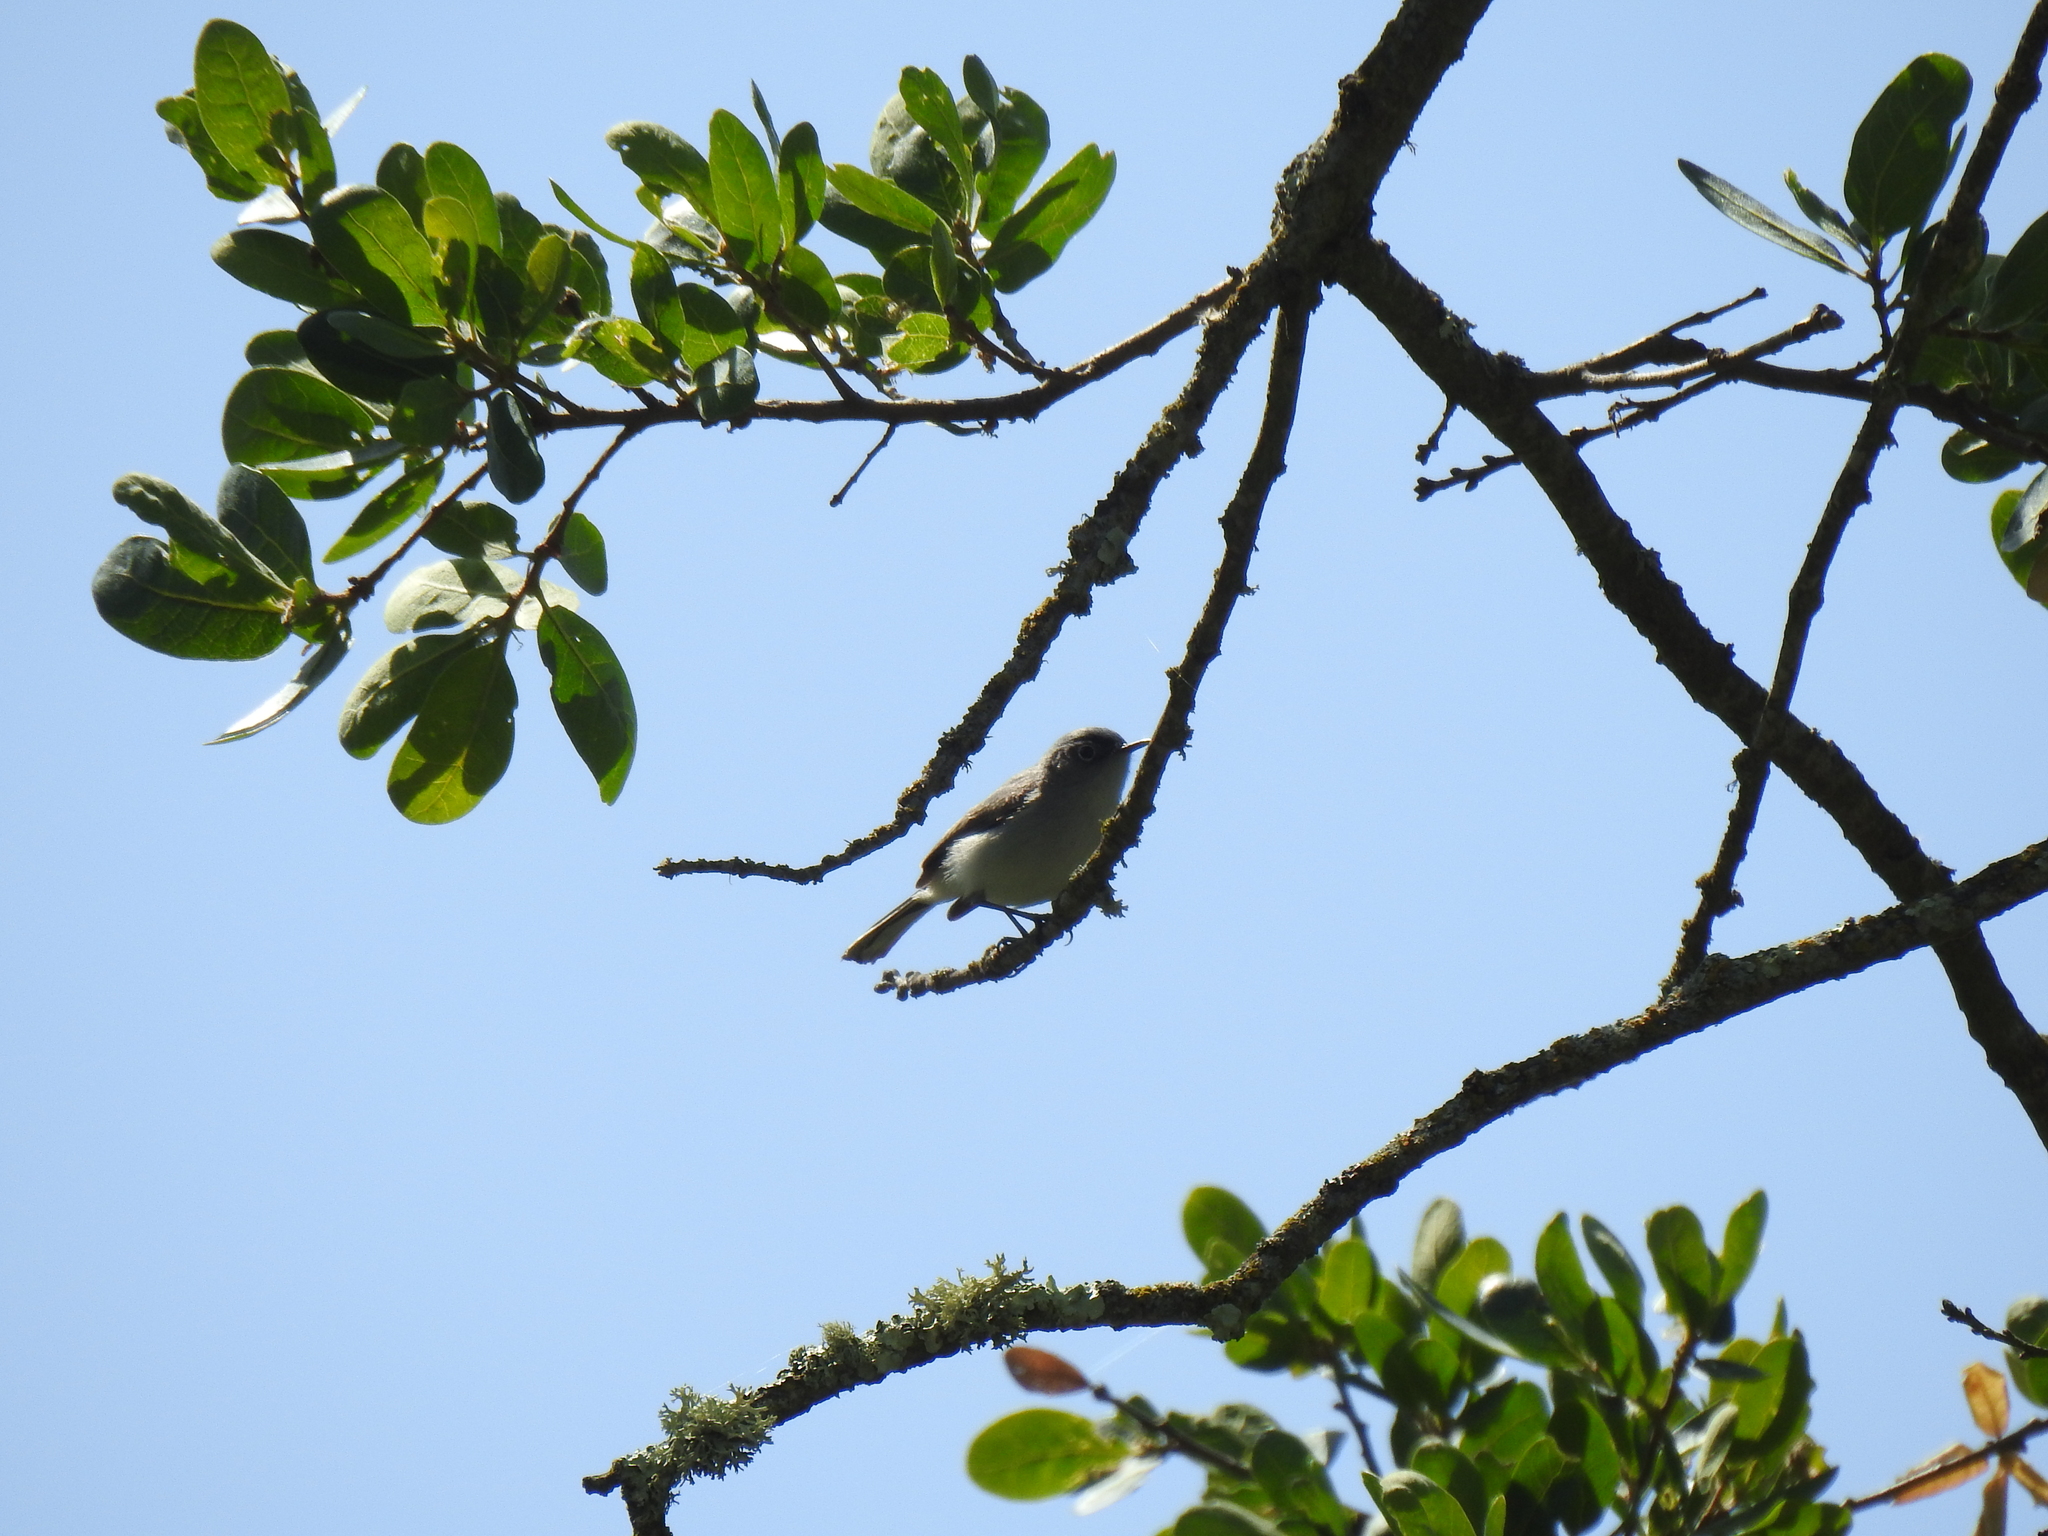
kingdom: Animalia
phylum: Chordata
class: Aves
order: Passeriformes
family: Polioptilidae
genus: Polioptila
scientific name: Polioptila caerulea
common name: Blue-gray gnatcatcher
